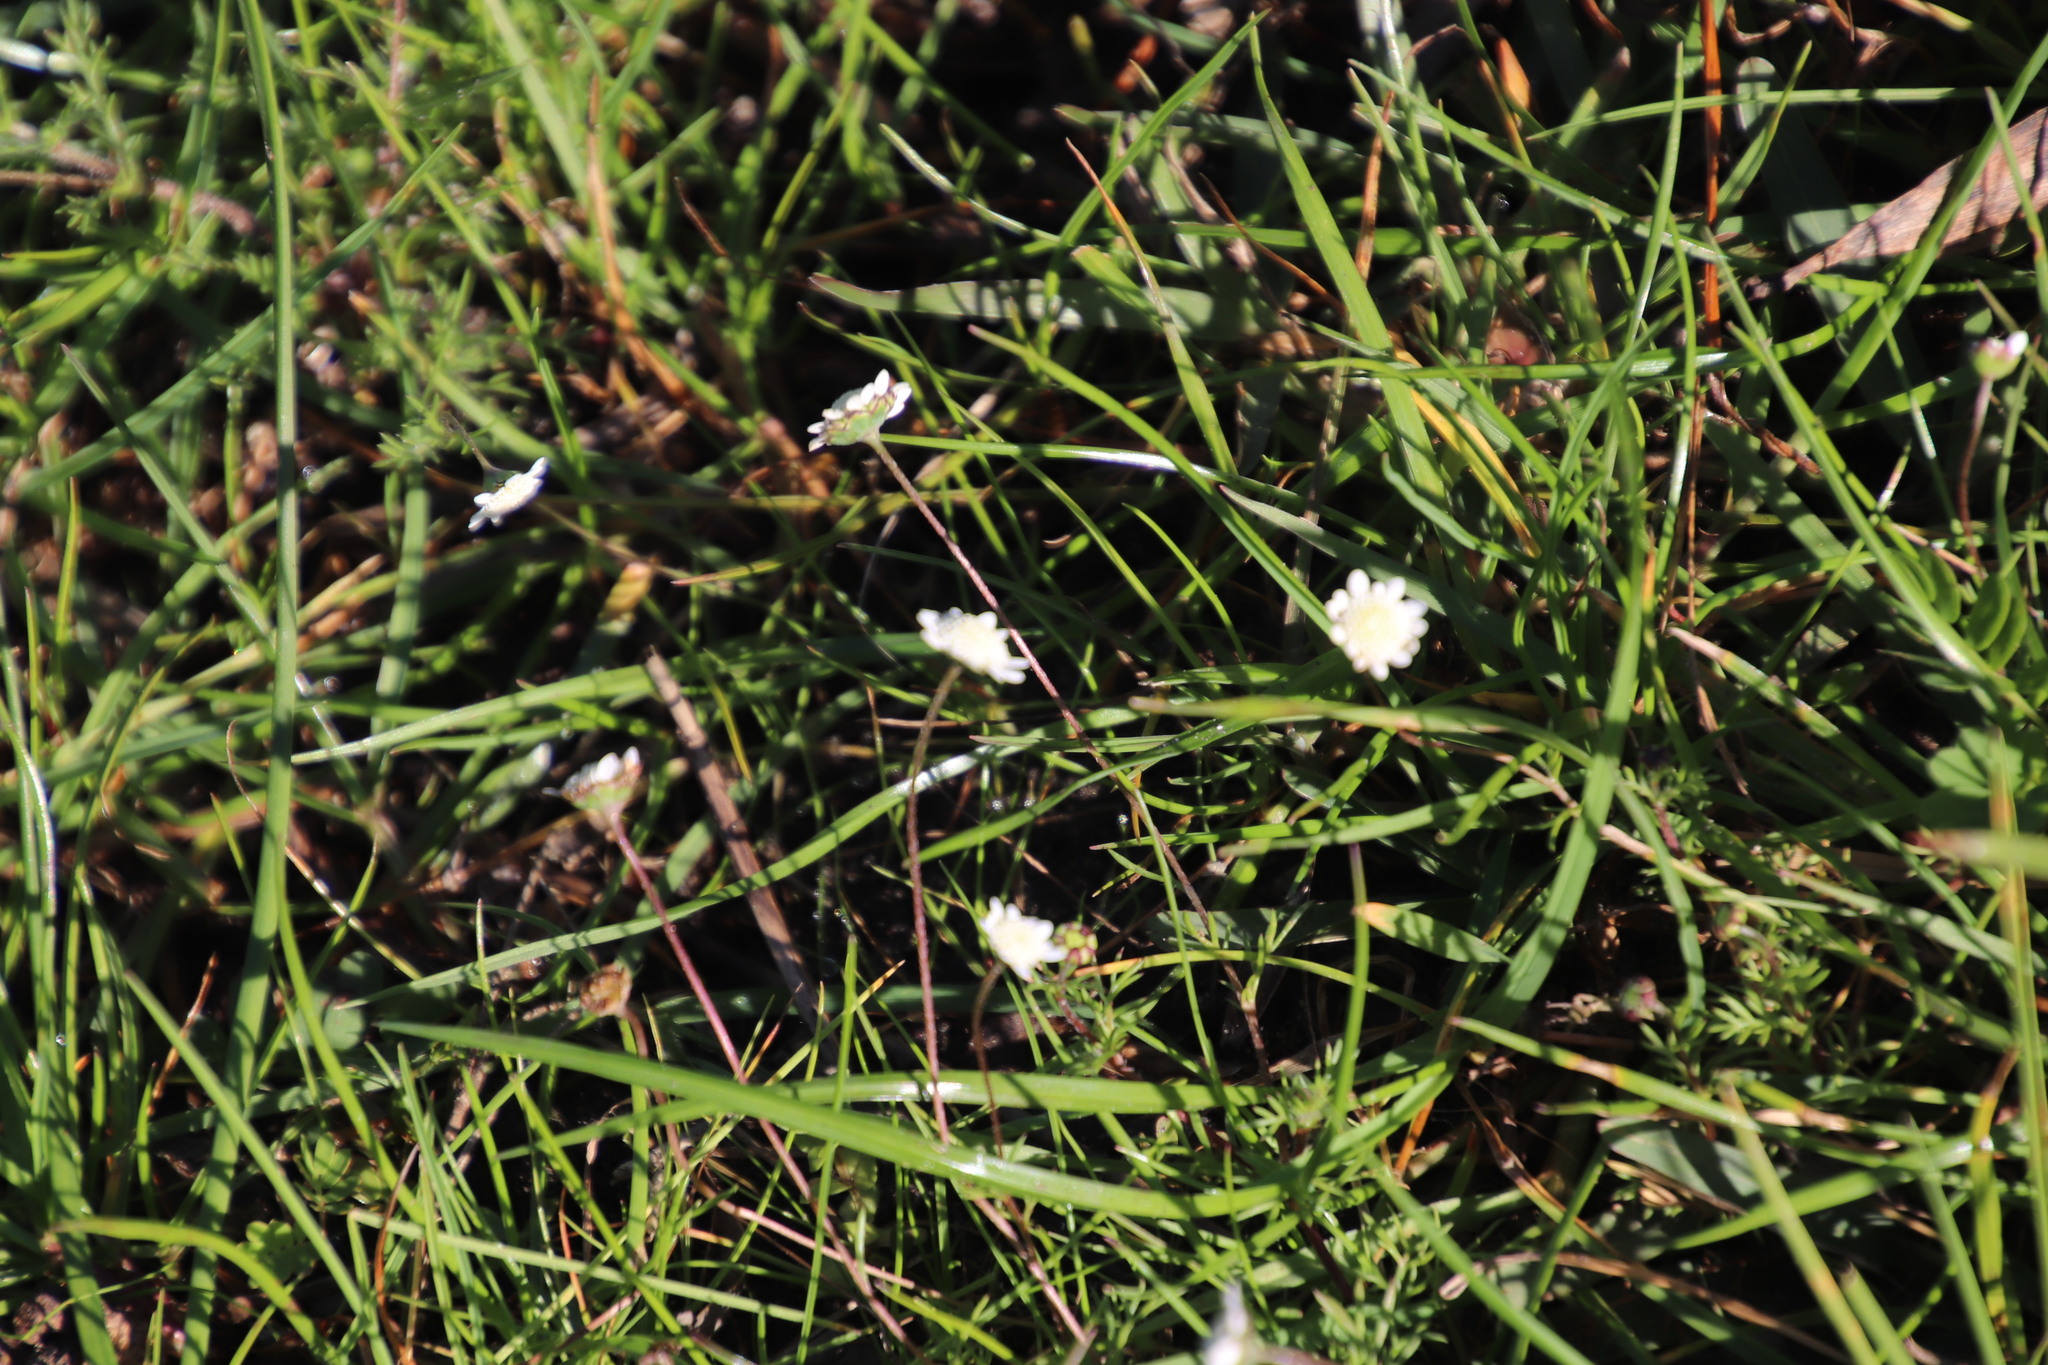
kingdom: Plantae
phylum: Tracheophyta
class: Magnoliopsida
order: Asterales
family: Asteraceae
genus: Cotula
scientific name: Cotula turbinata
